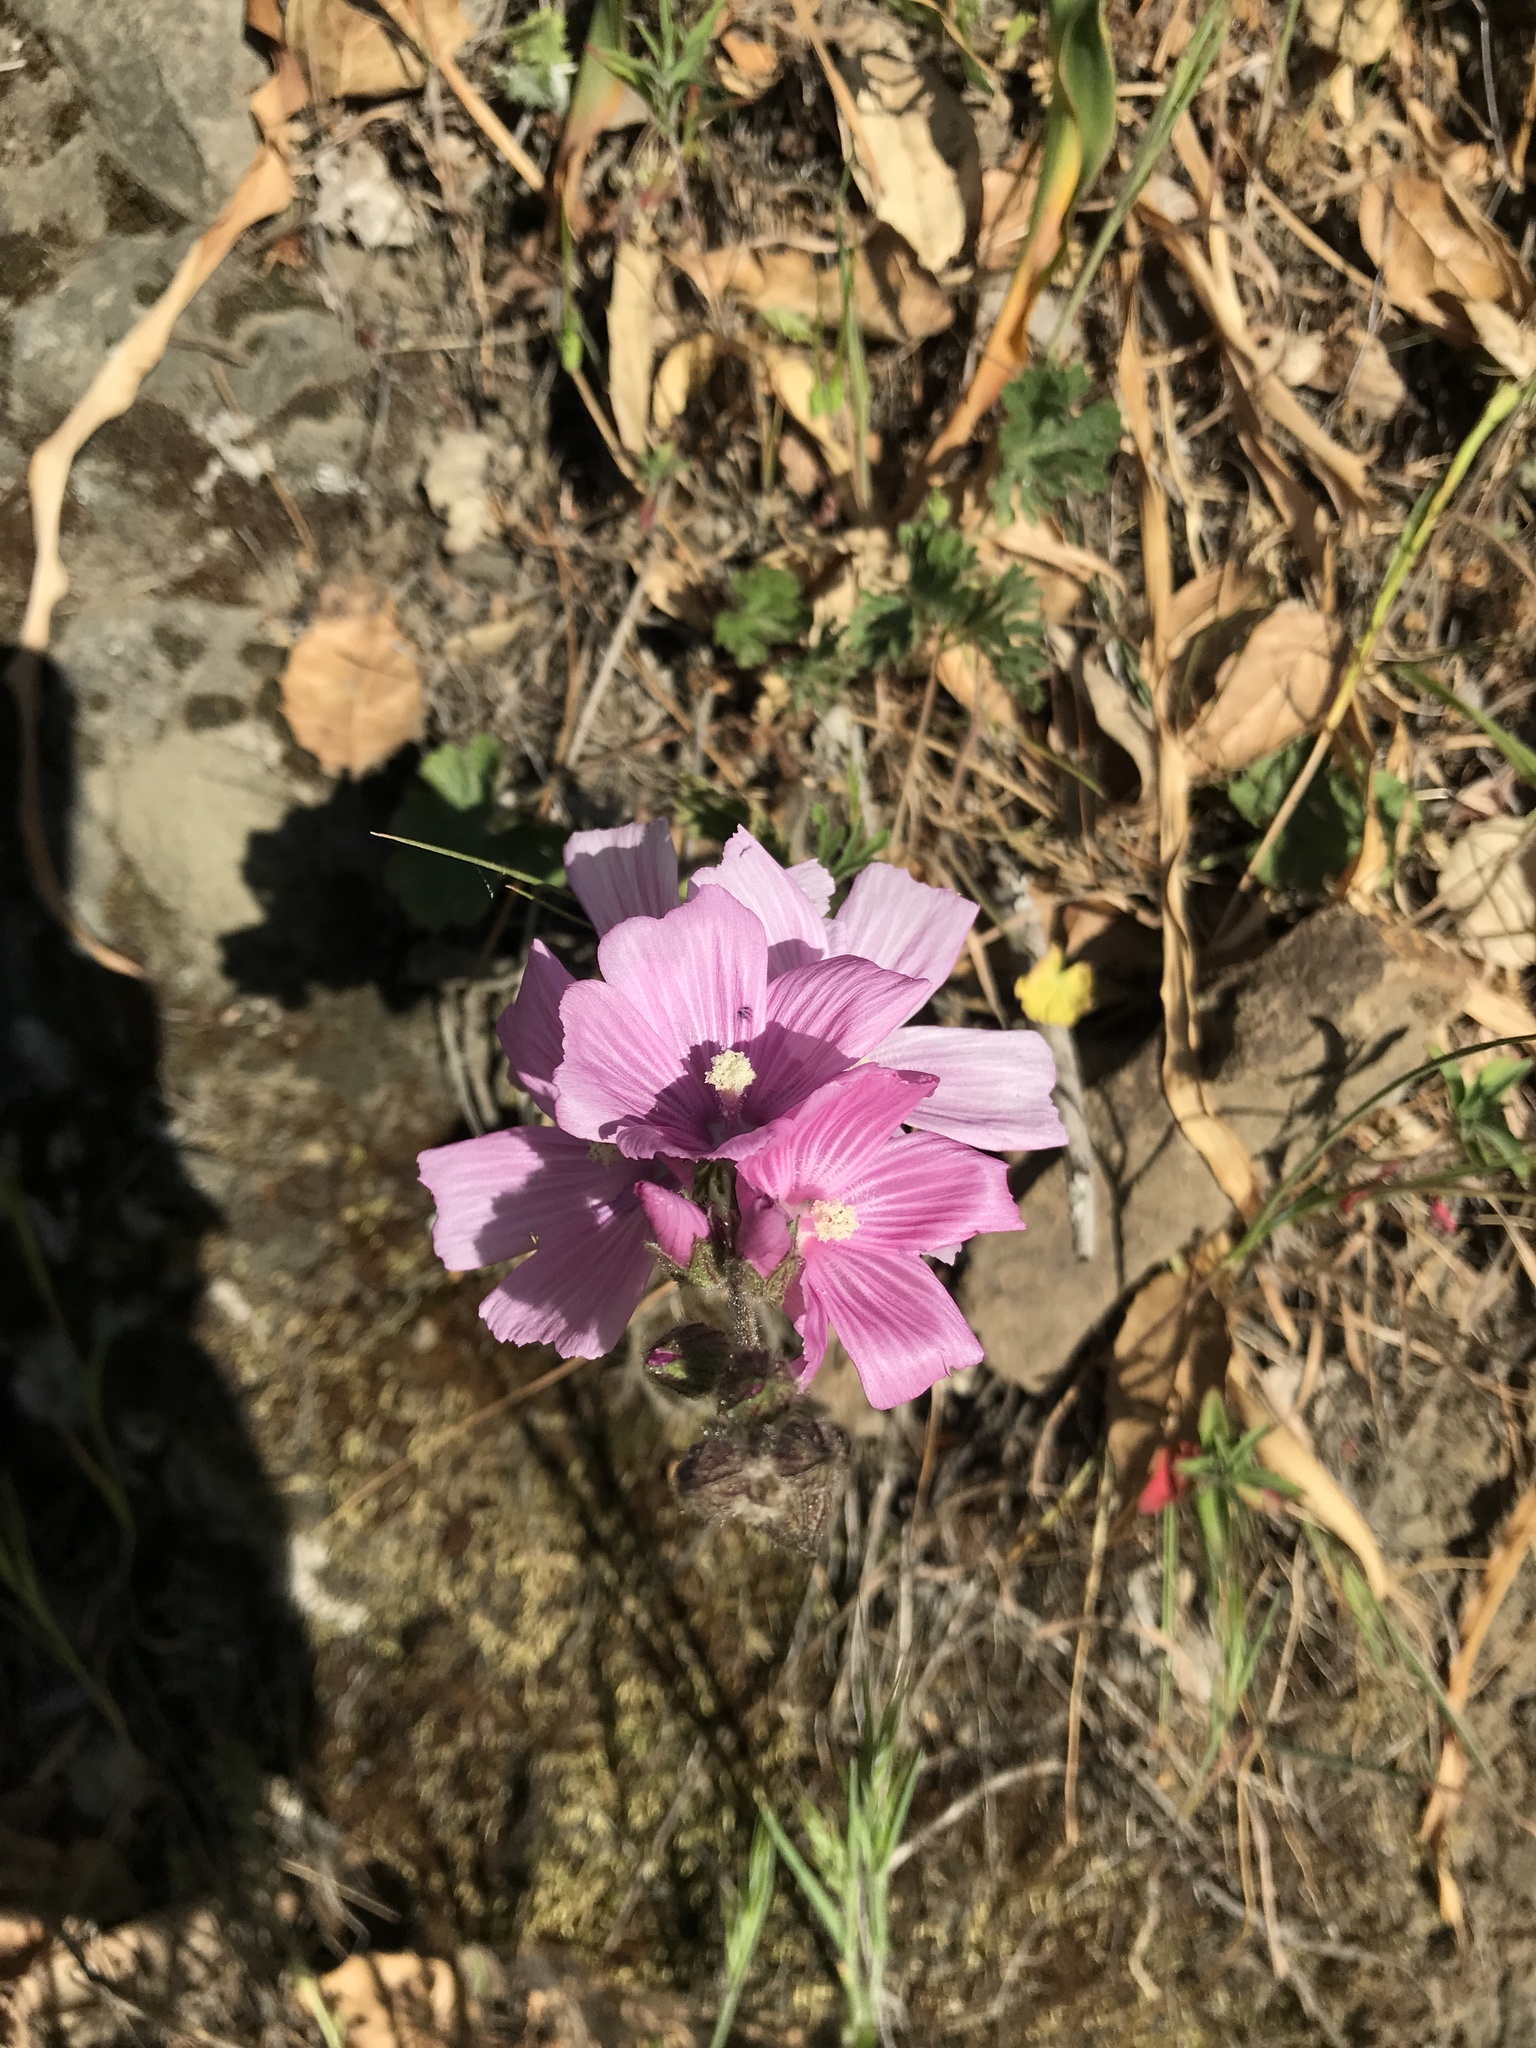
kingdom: Plantae
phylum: Tracheophyta
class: Magnoliopsida
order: Malvales
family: Malvaceae
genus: Sidalcea
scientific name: Sidalcea malviflora
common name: Greek mallow
